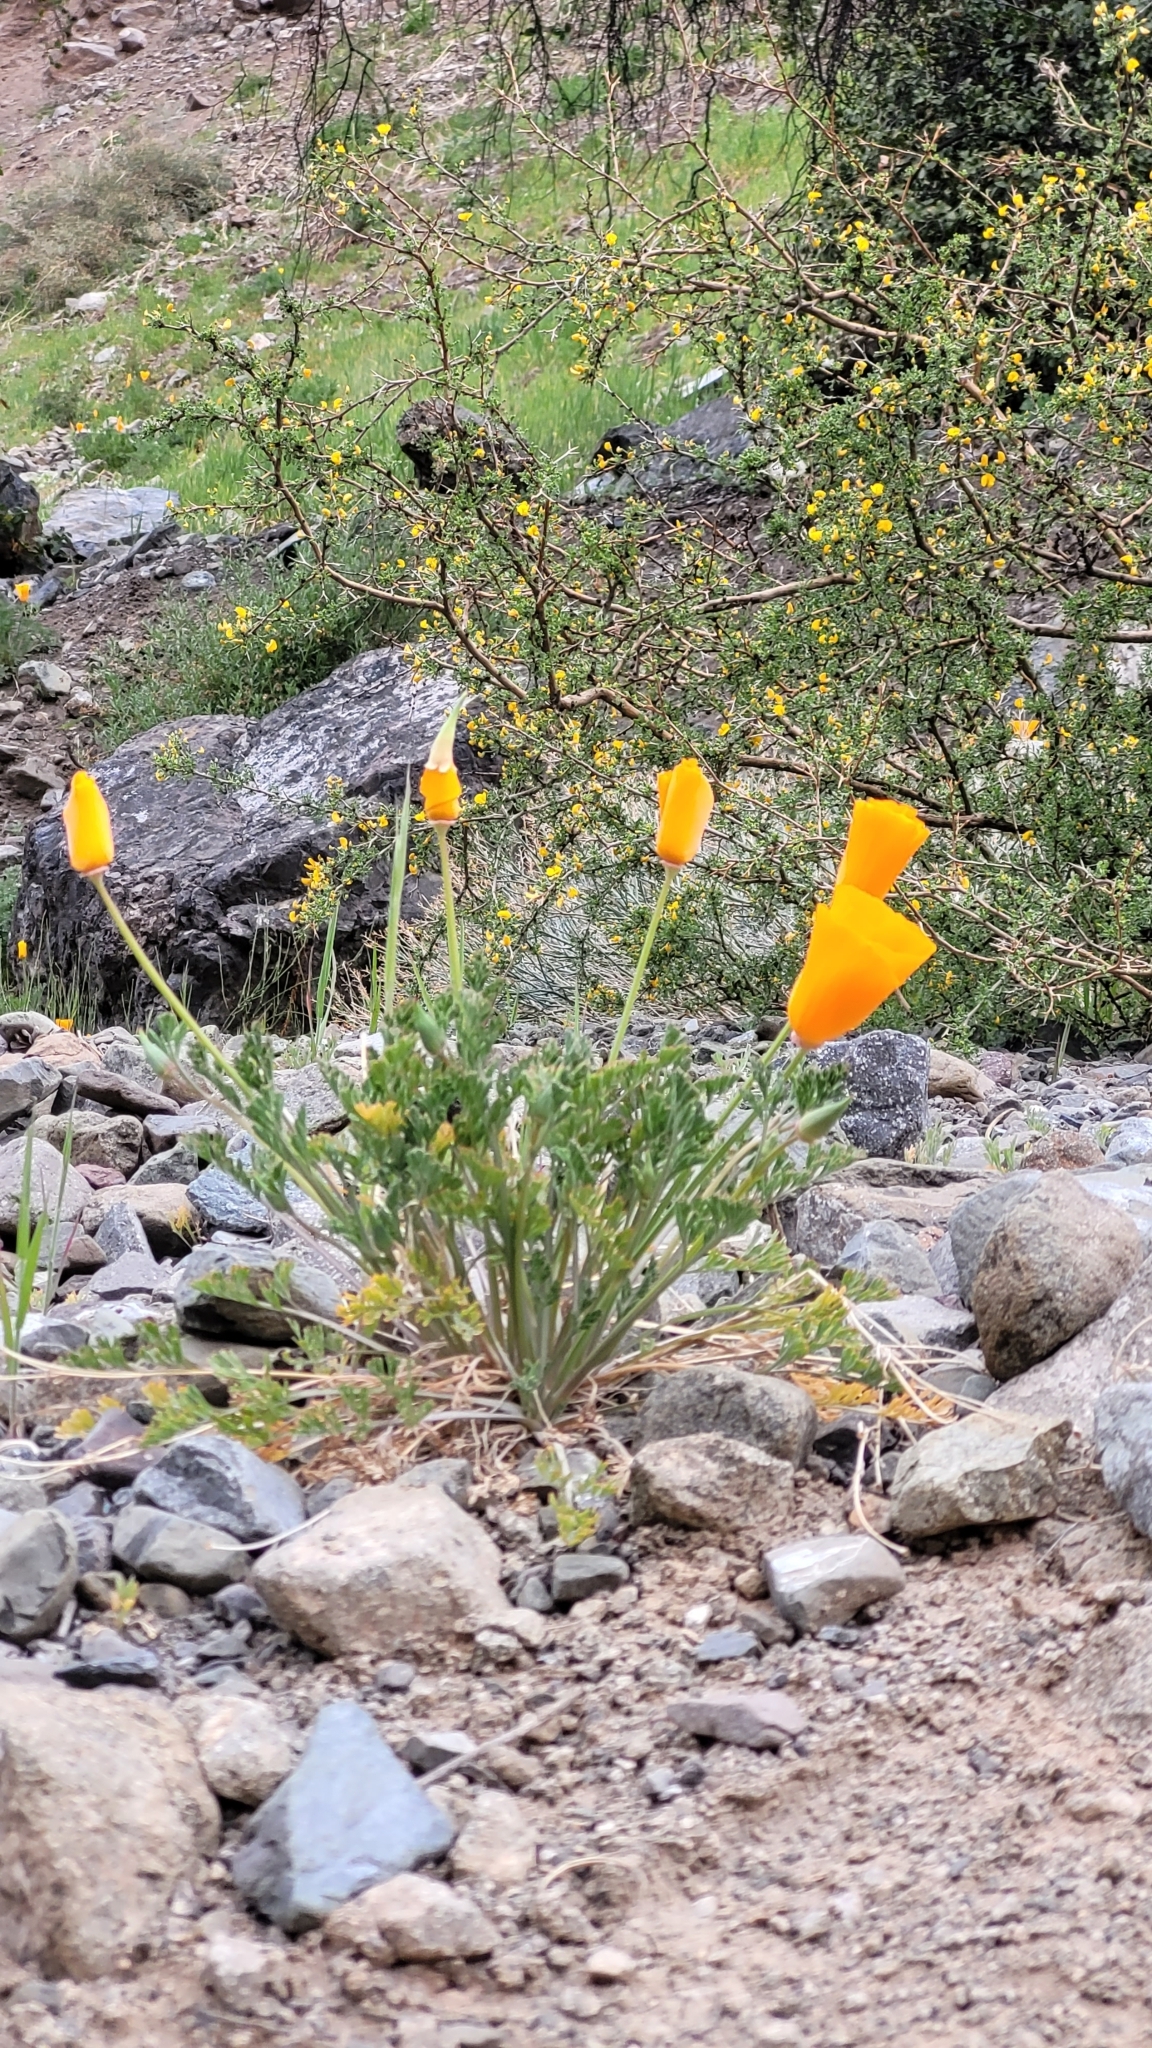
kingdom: Plantae
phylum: Tracheophyta
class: Magnoliopsida
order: Ranunculales
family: Papaveraceae
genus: Eschscholzia
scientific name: Eschscholzia californica
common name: California poppy
